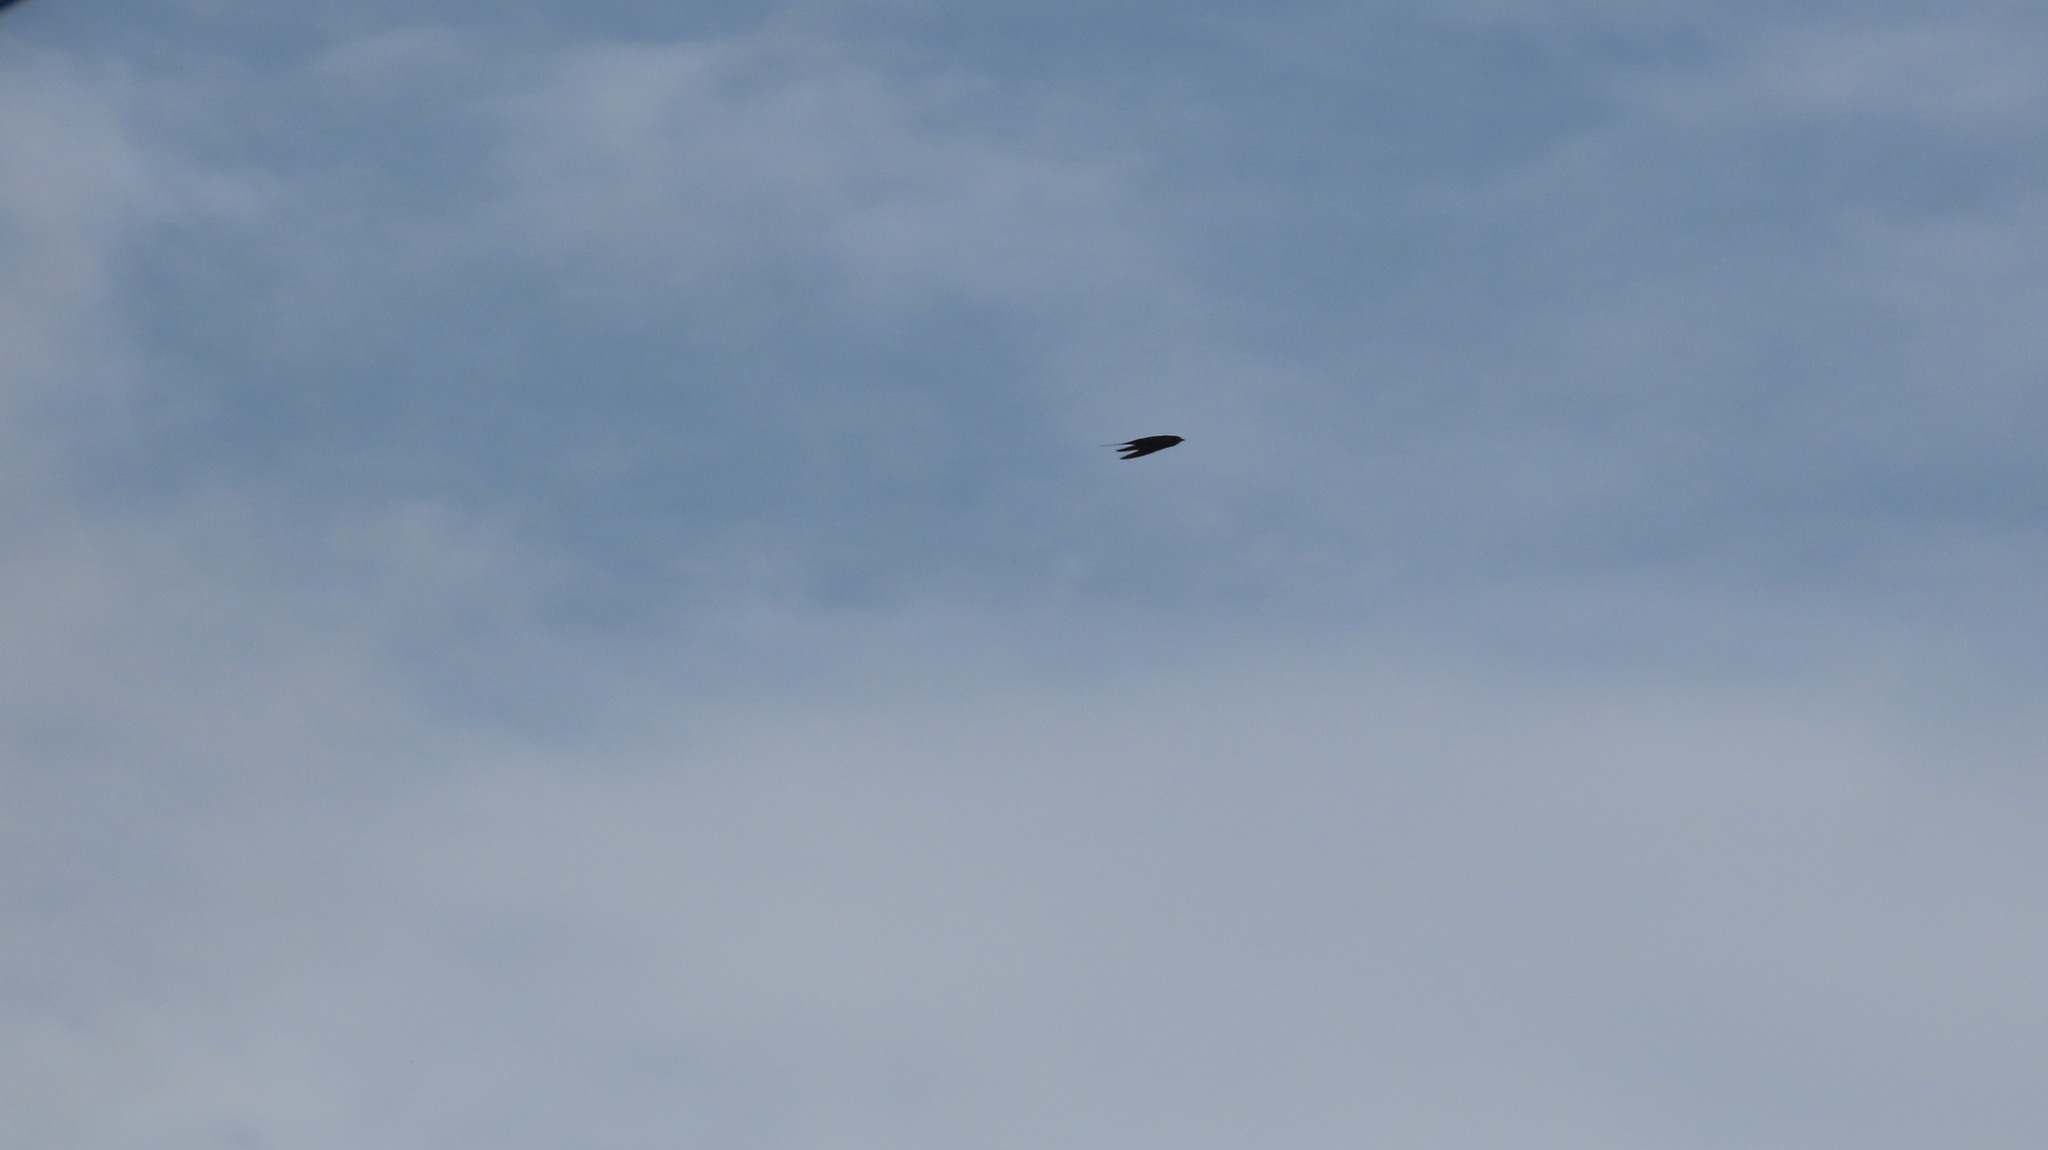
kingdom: Animalia
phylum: Chordata
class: Aves
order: Passeriformes
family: Hirundinidae
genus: Hirundo
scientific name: Hirundo rustica
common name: Barn swallow
